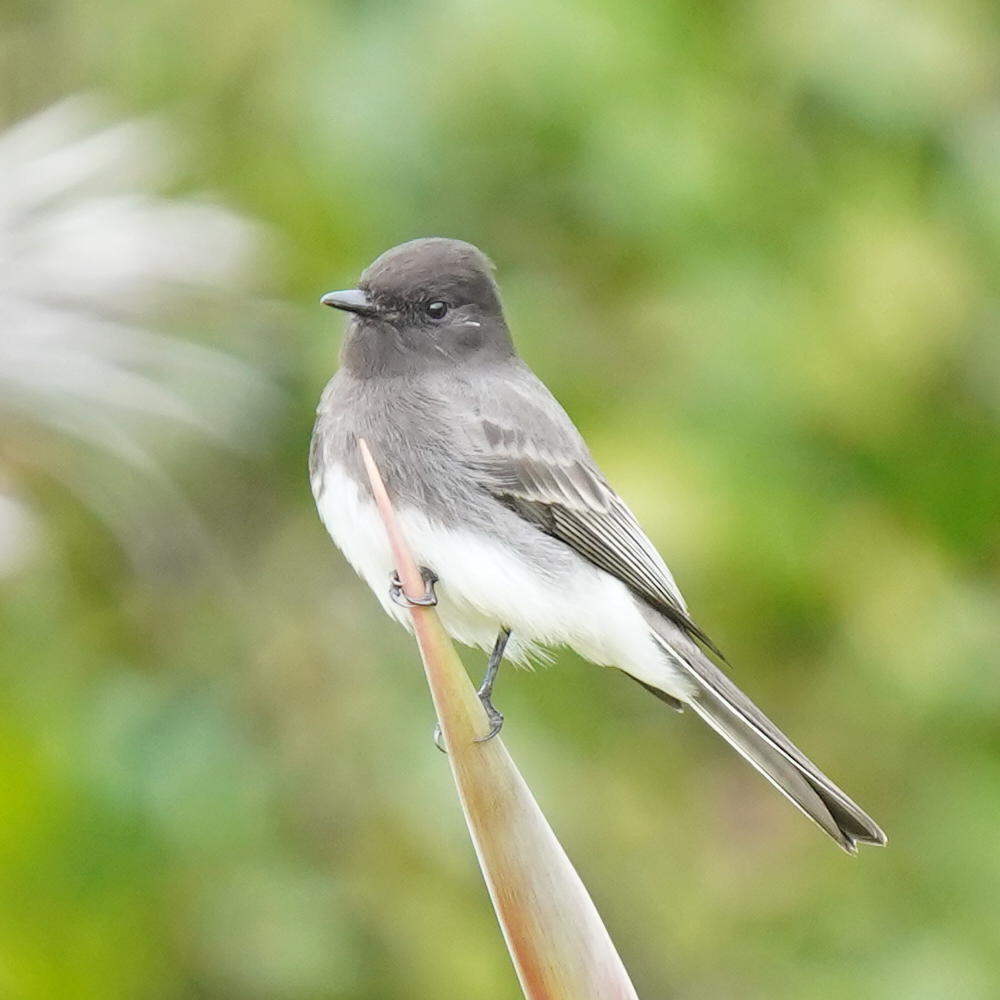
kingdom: Animalia
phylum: Chordata
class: Aves
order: Passeriformes
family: Tyrannidae
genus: Sayornis
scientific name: Sayornis nigricans
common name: Black phoebe
